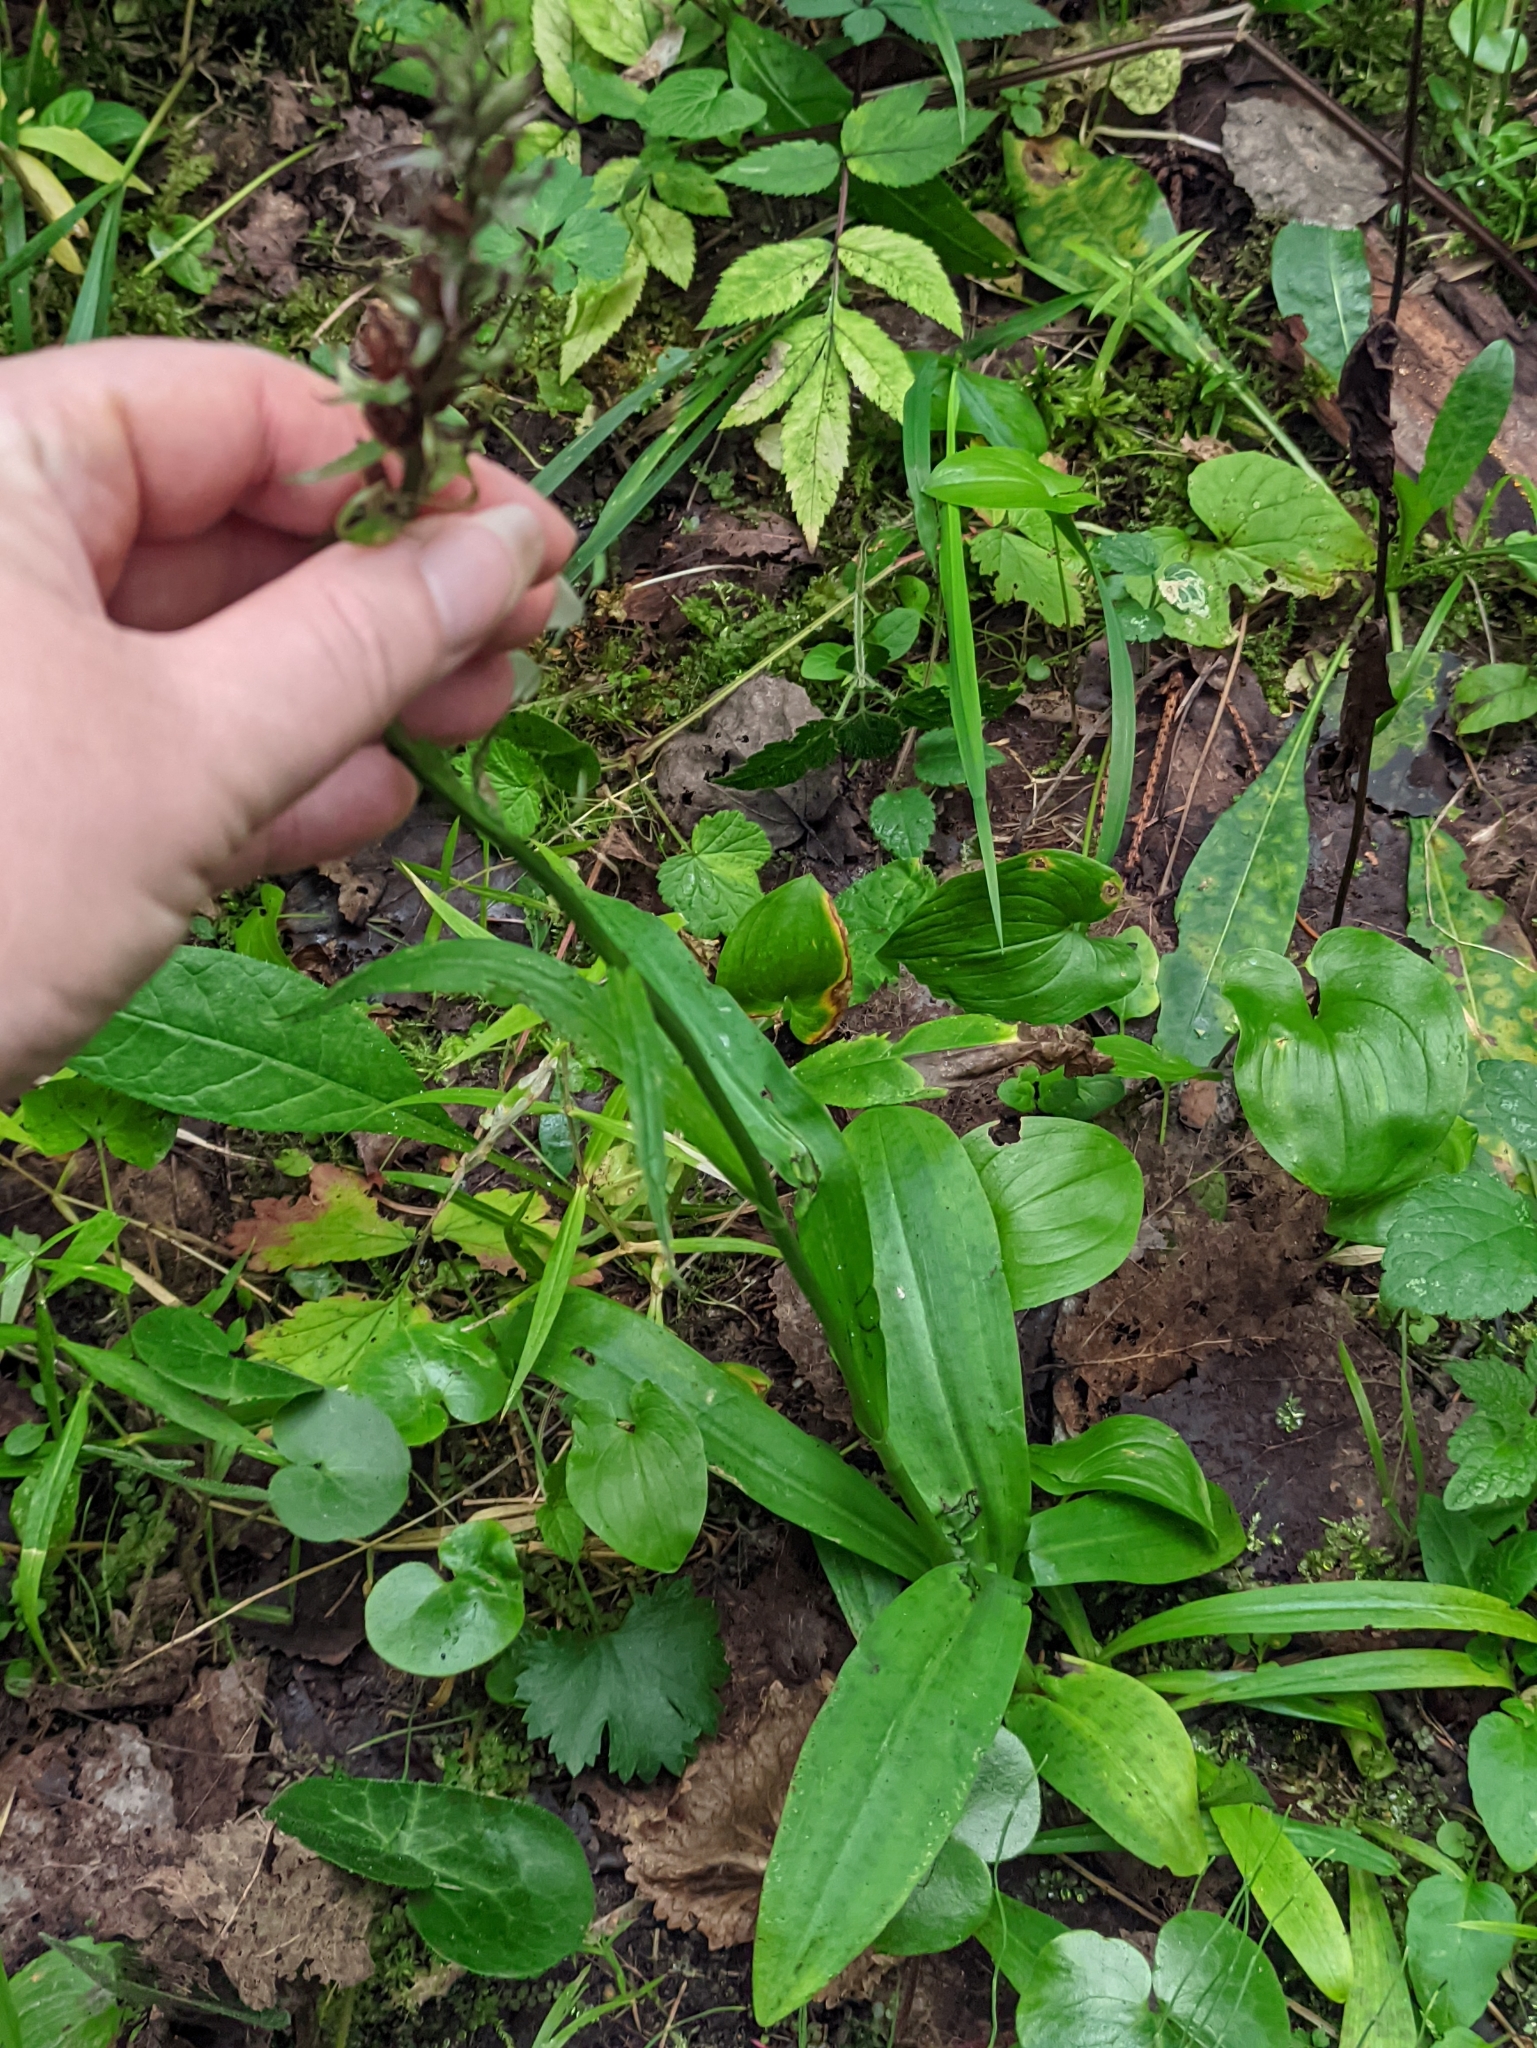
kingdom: Plantae
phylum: Tracheophyta
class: Liliopsida
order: Asparagales
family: Orchidaceae
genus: Dactylorhiza
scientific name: Dactylorhiza maculata
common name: Heath spotted-orchid
